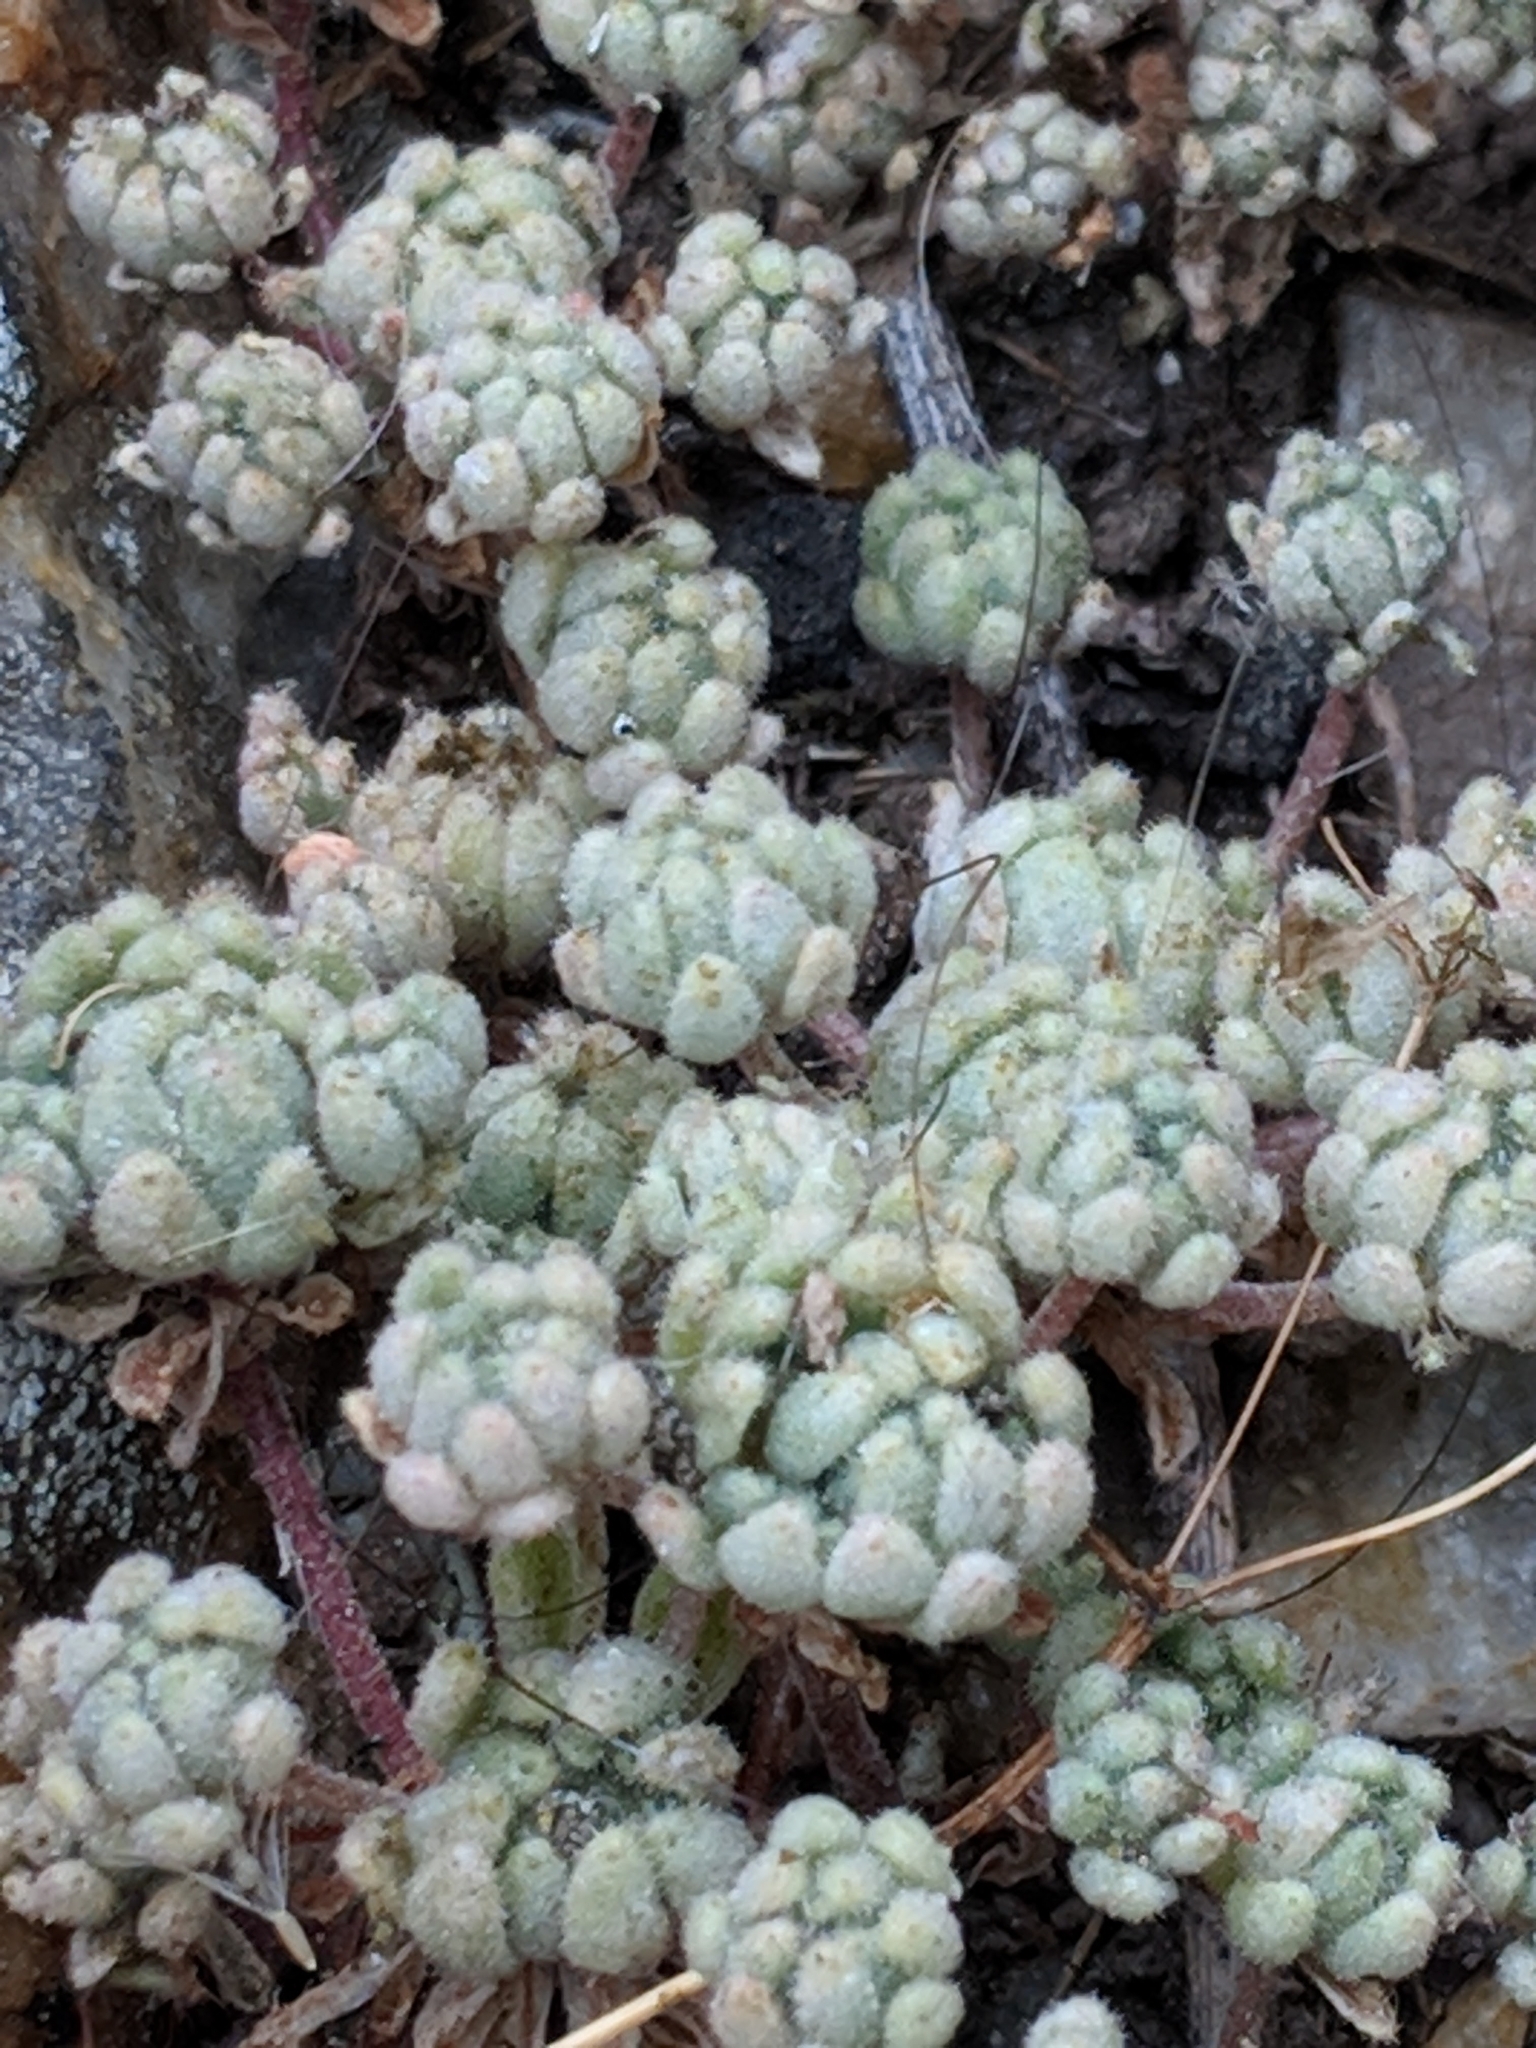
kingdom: Plantae
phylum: Tracheophyta
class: Magnoliopsida
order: Saxifragales
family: Crassulaceae
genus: Sedum
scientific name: Sedum hirsutum
